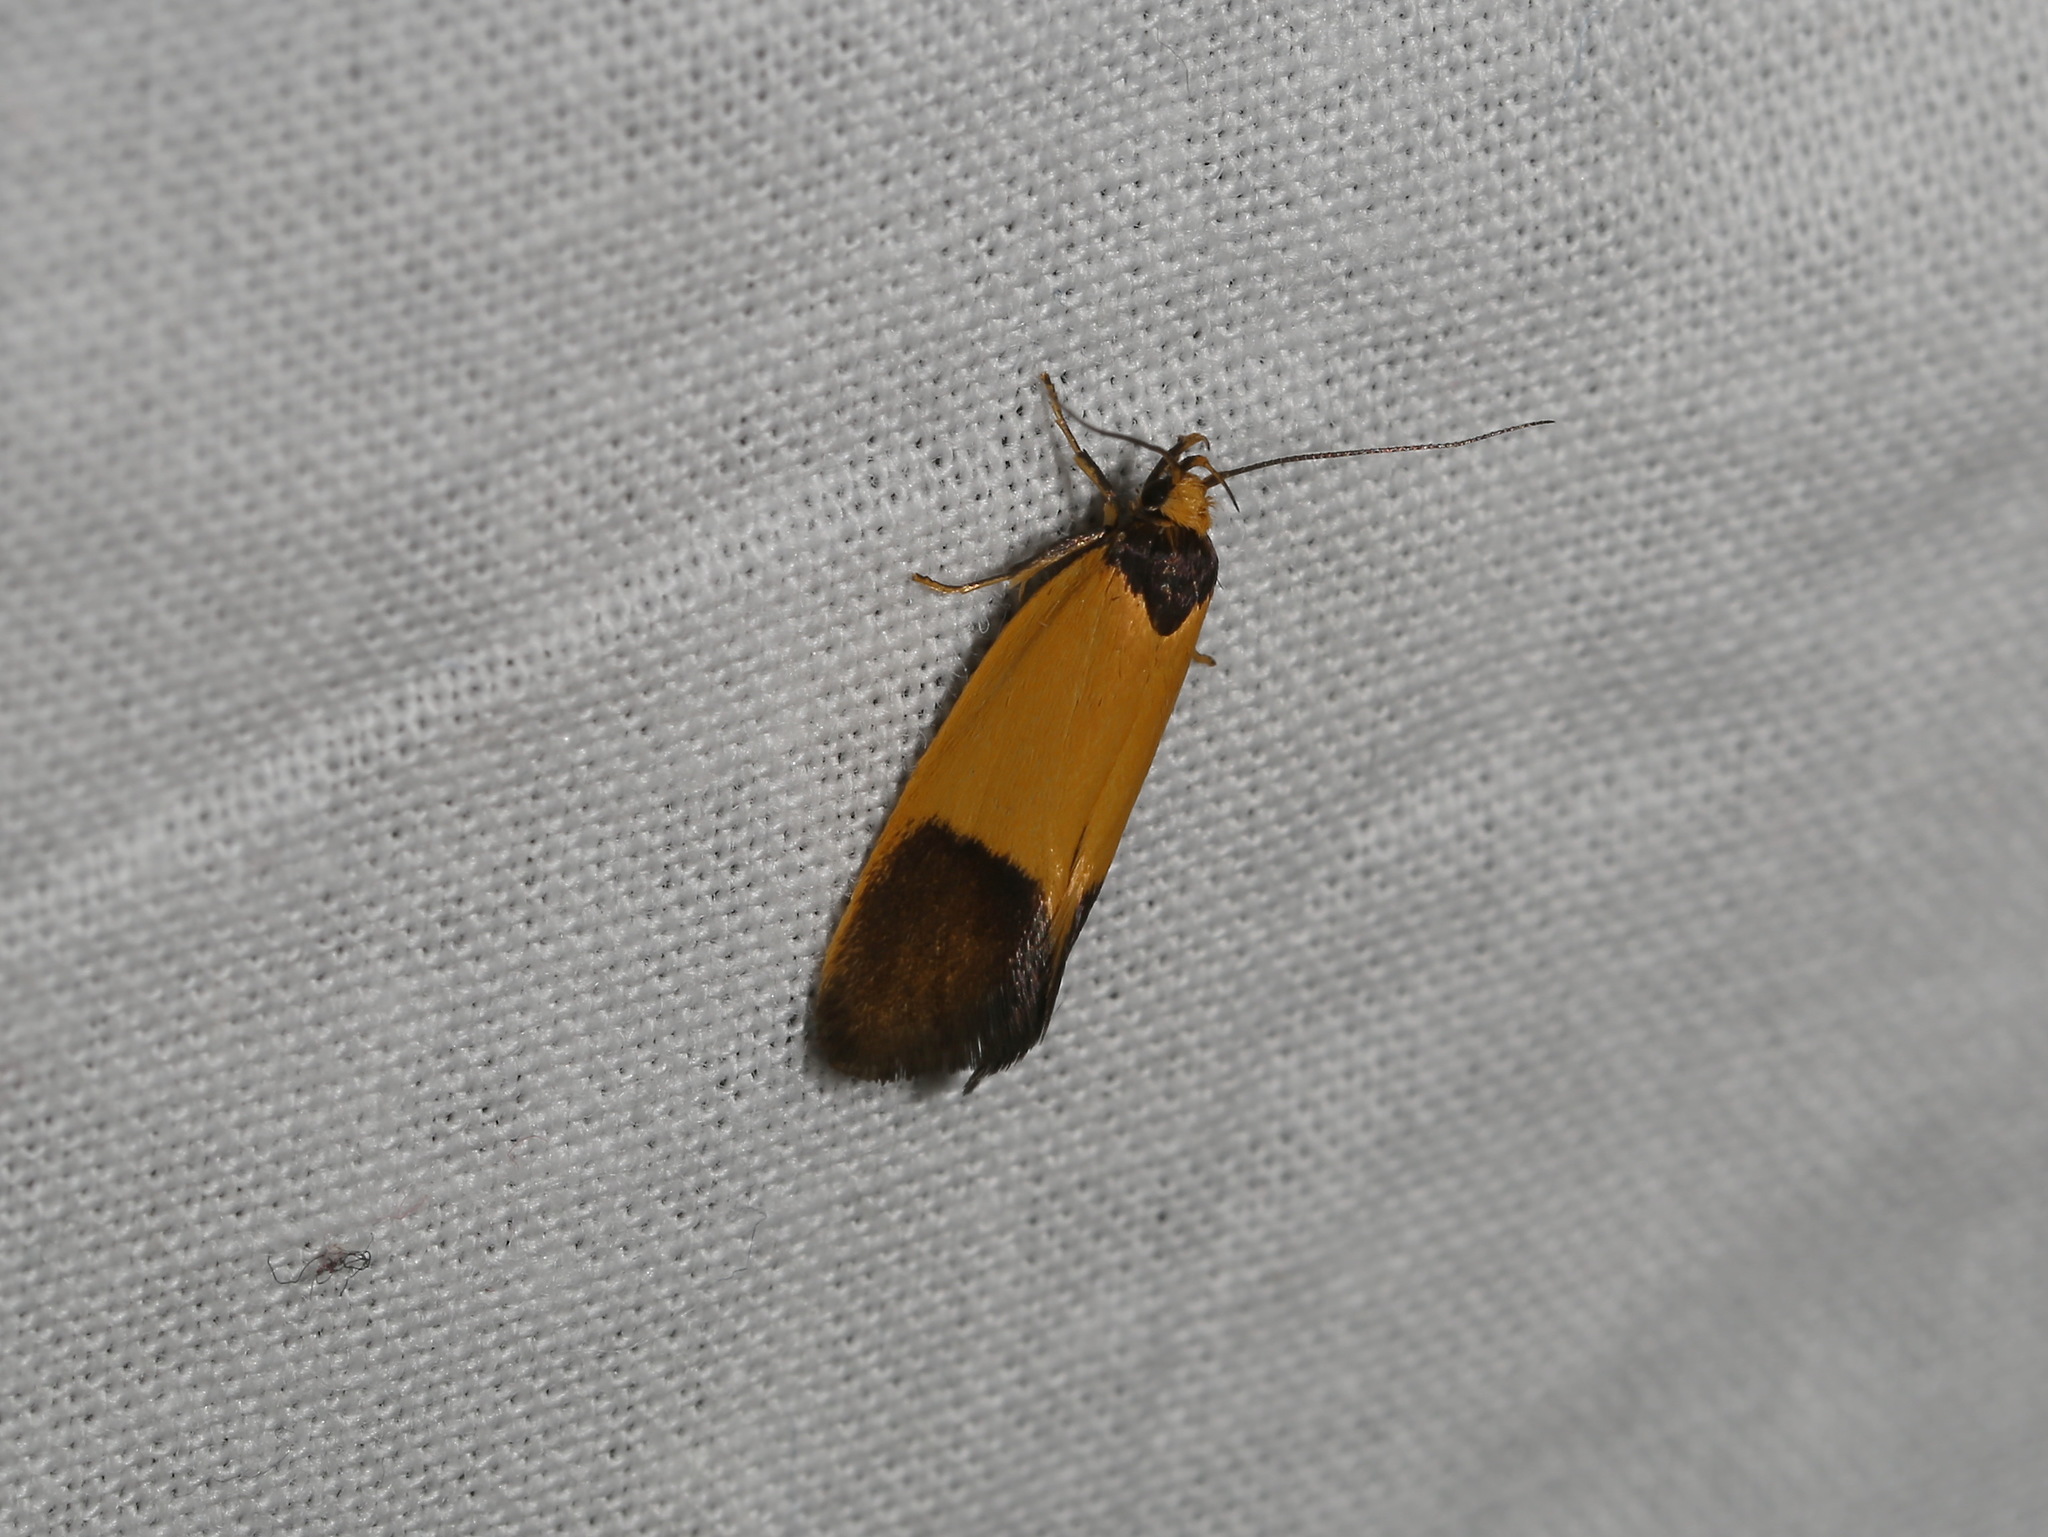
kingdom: Animalia
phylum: Arthropoda
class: Insecta
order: Lepidoptera
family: Oecophoridae
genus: Merocroca
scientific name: Merocroca automima
